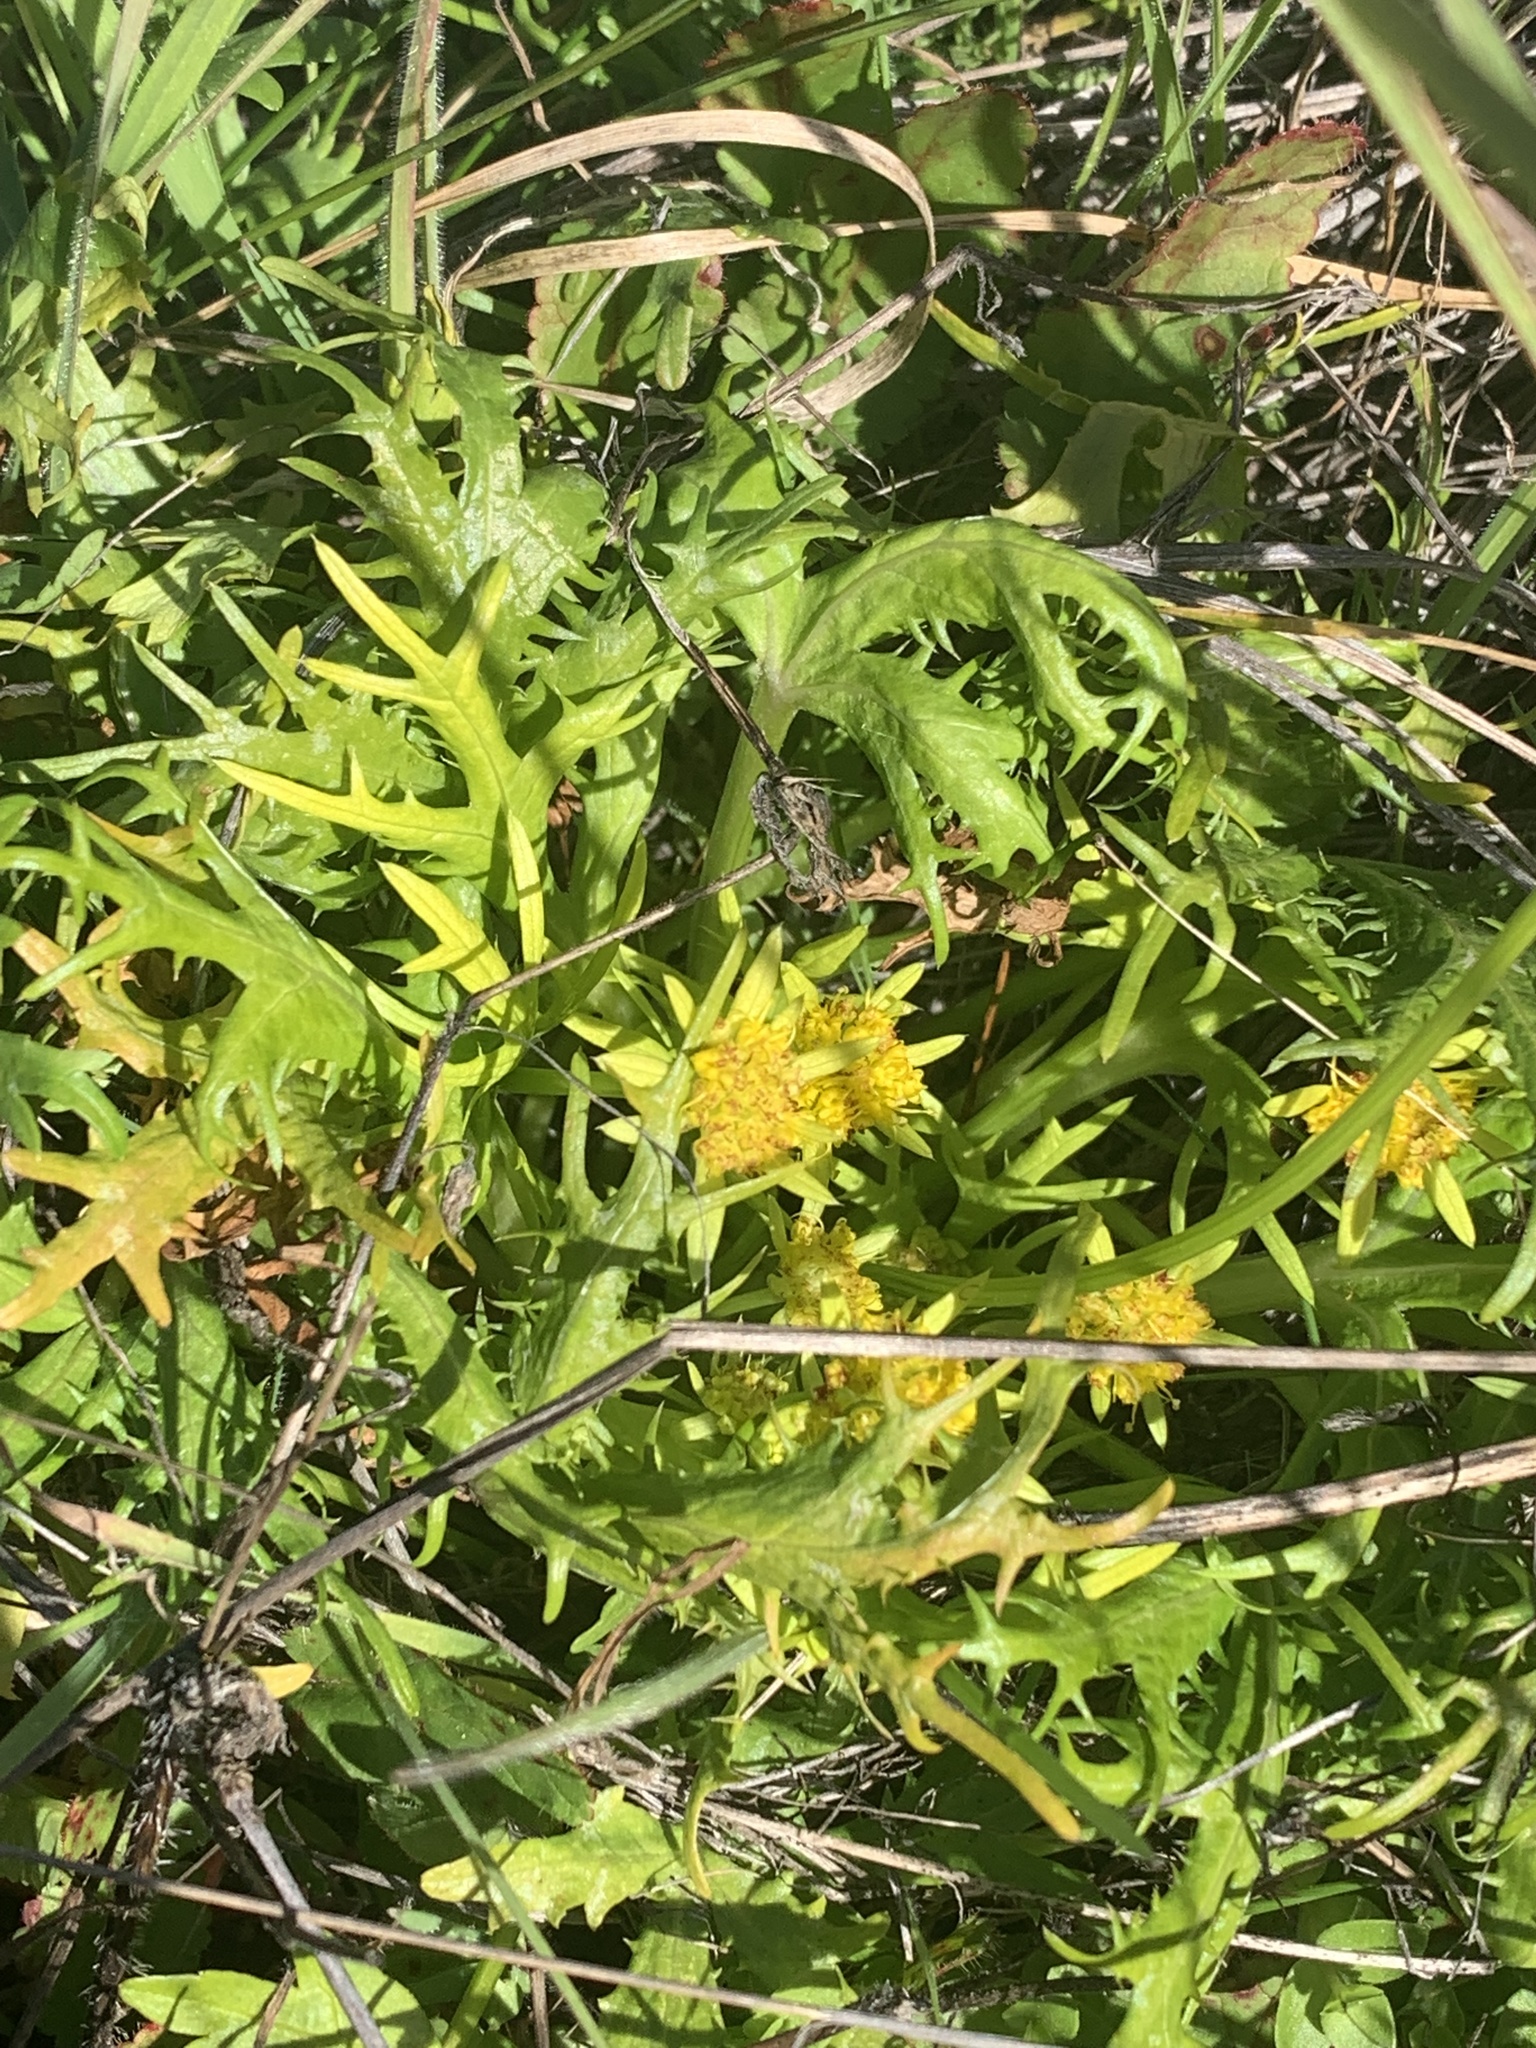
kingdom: Plantae
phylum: Tracheophyta
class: Magnoliopsida
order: Apiales
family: Apiaceae
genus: Sanicula
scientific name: Sanicula arctopoides
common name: Footsteps-of-spring
